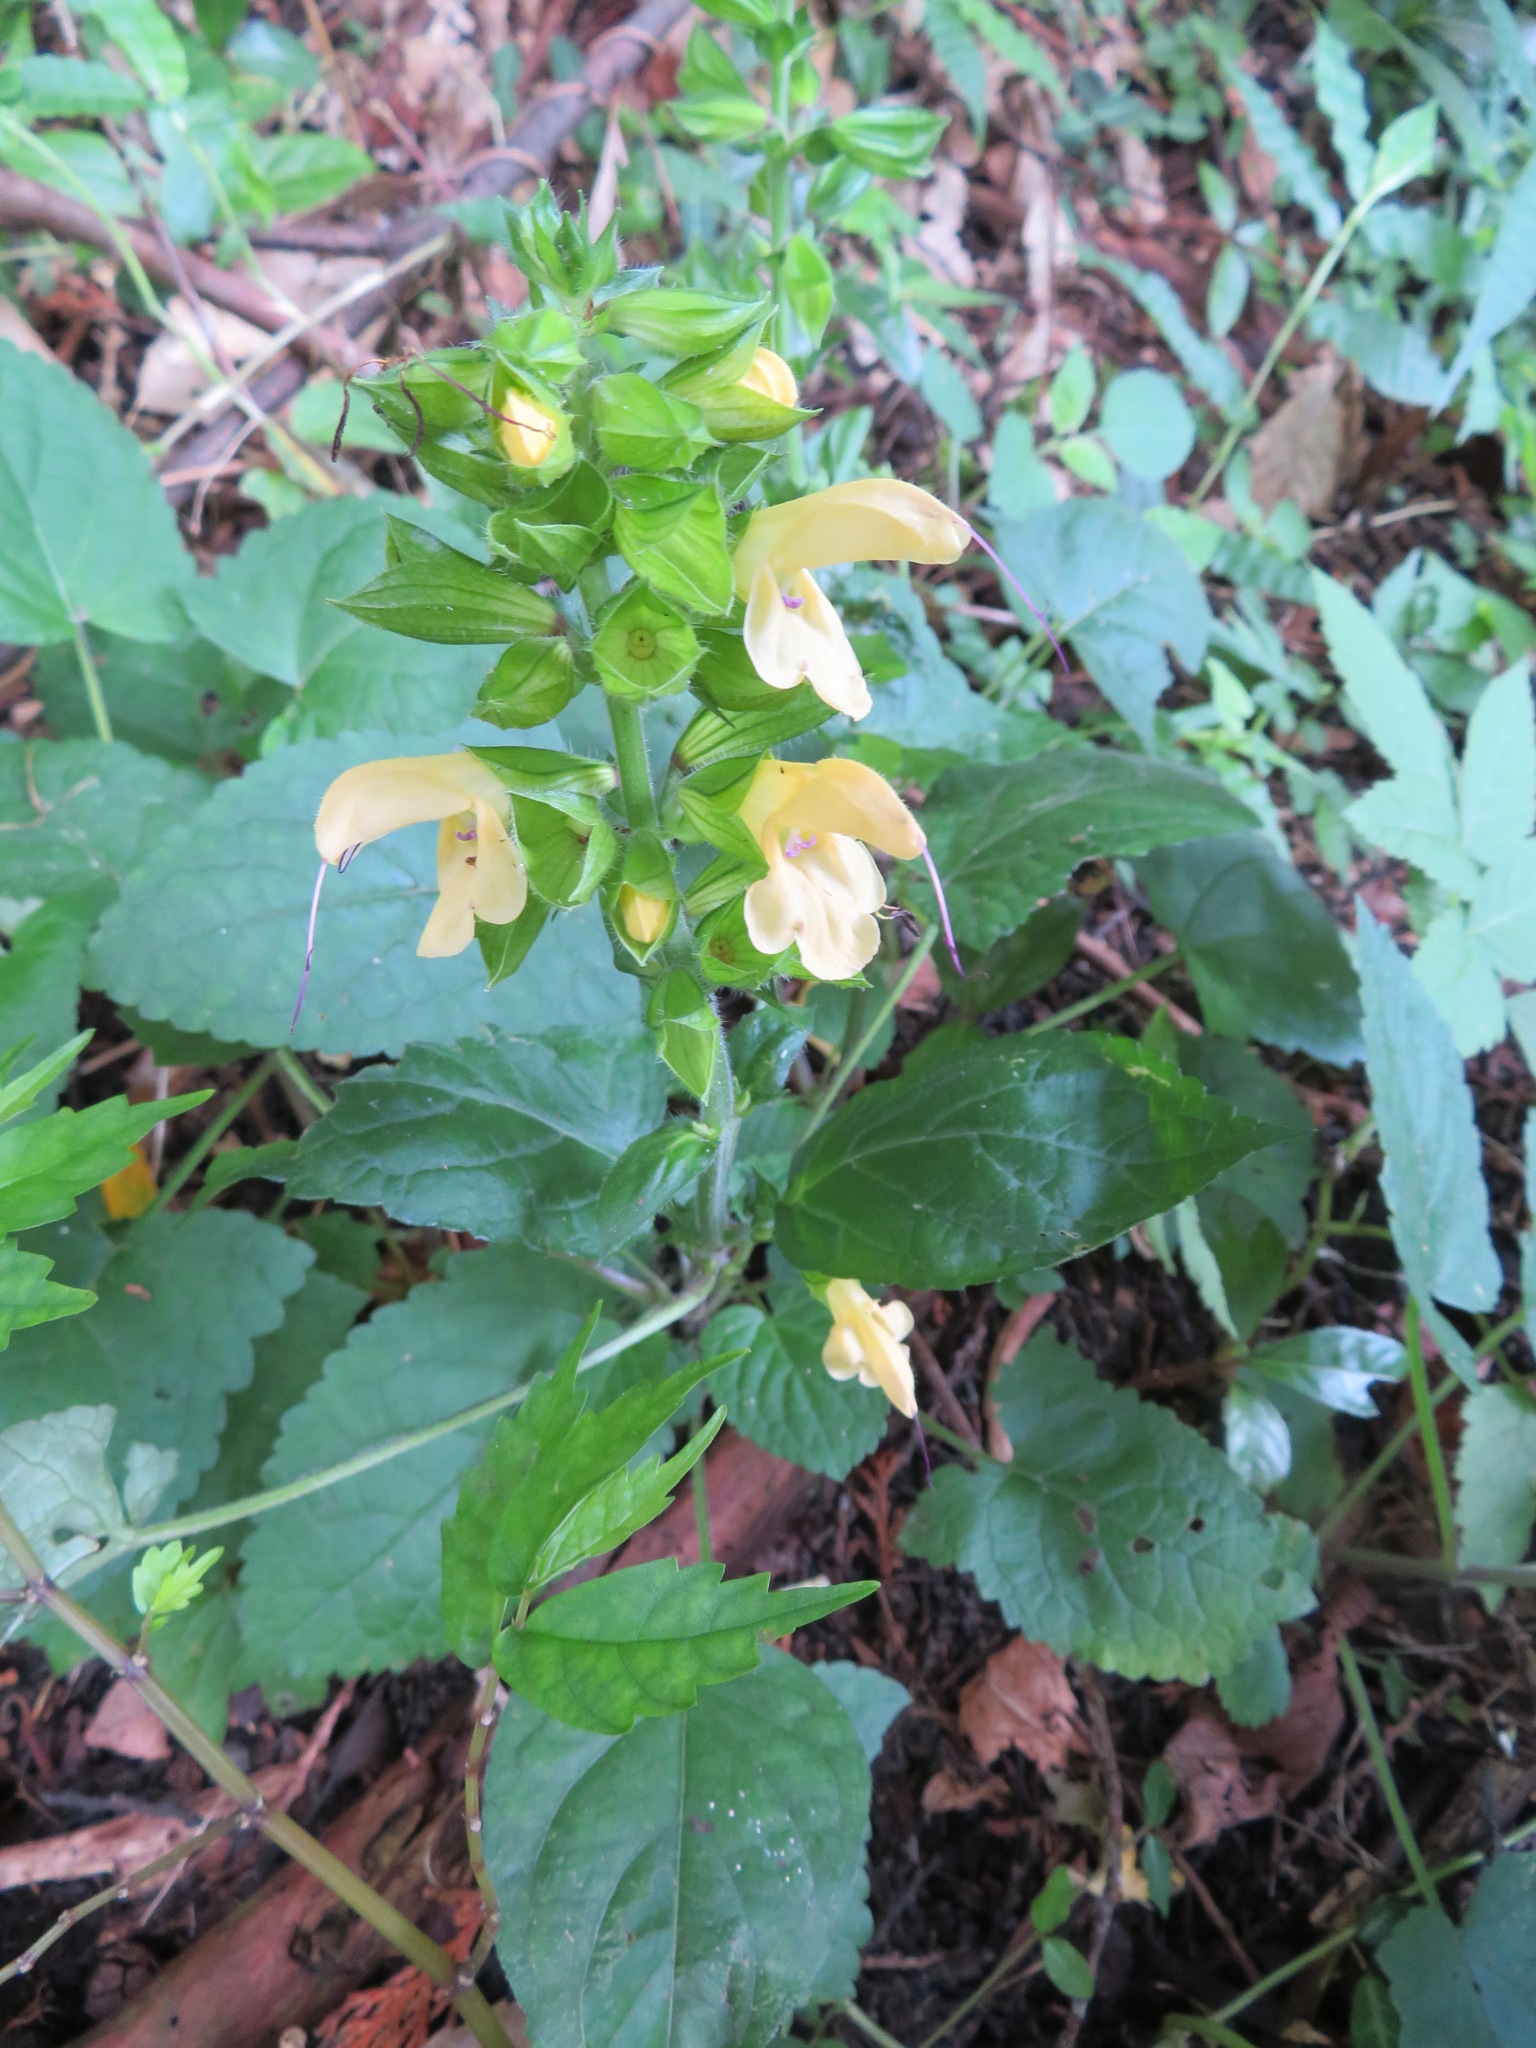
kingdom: Plantae
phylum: Tracheophyta
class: Magnoliopsida
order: Lamiales
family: Lamiaceae
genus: Salvia
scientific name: Salvia nipponica
